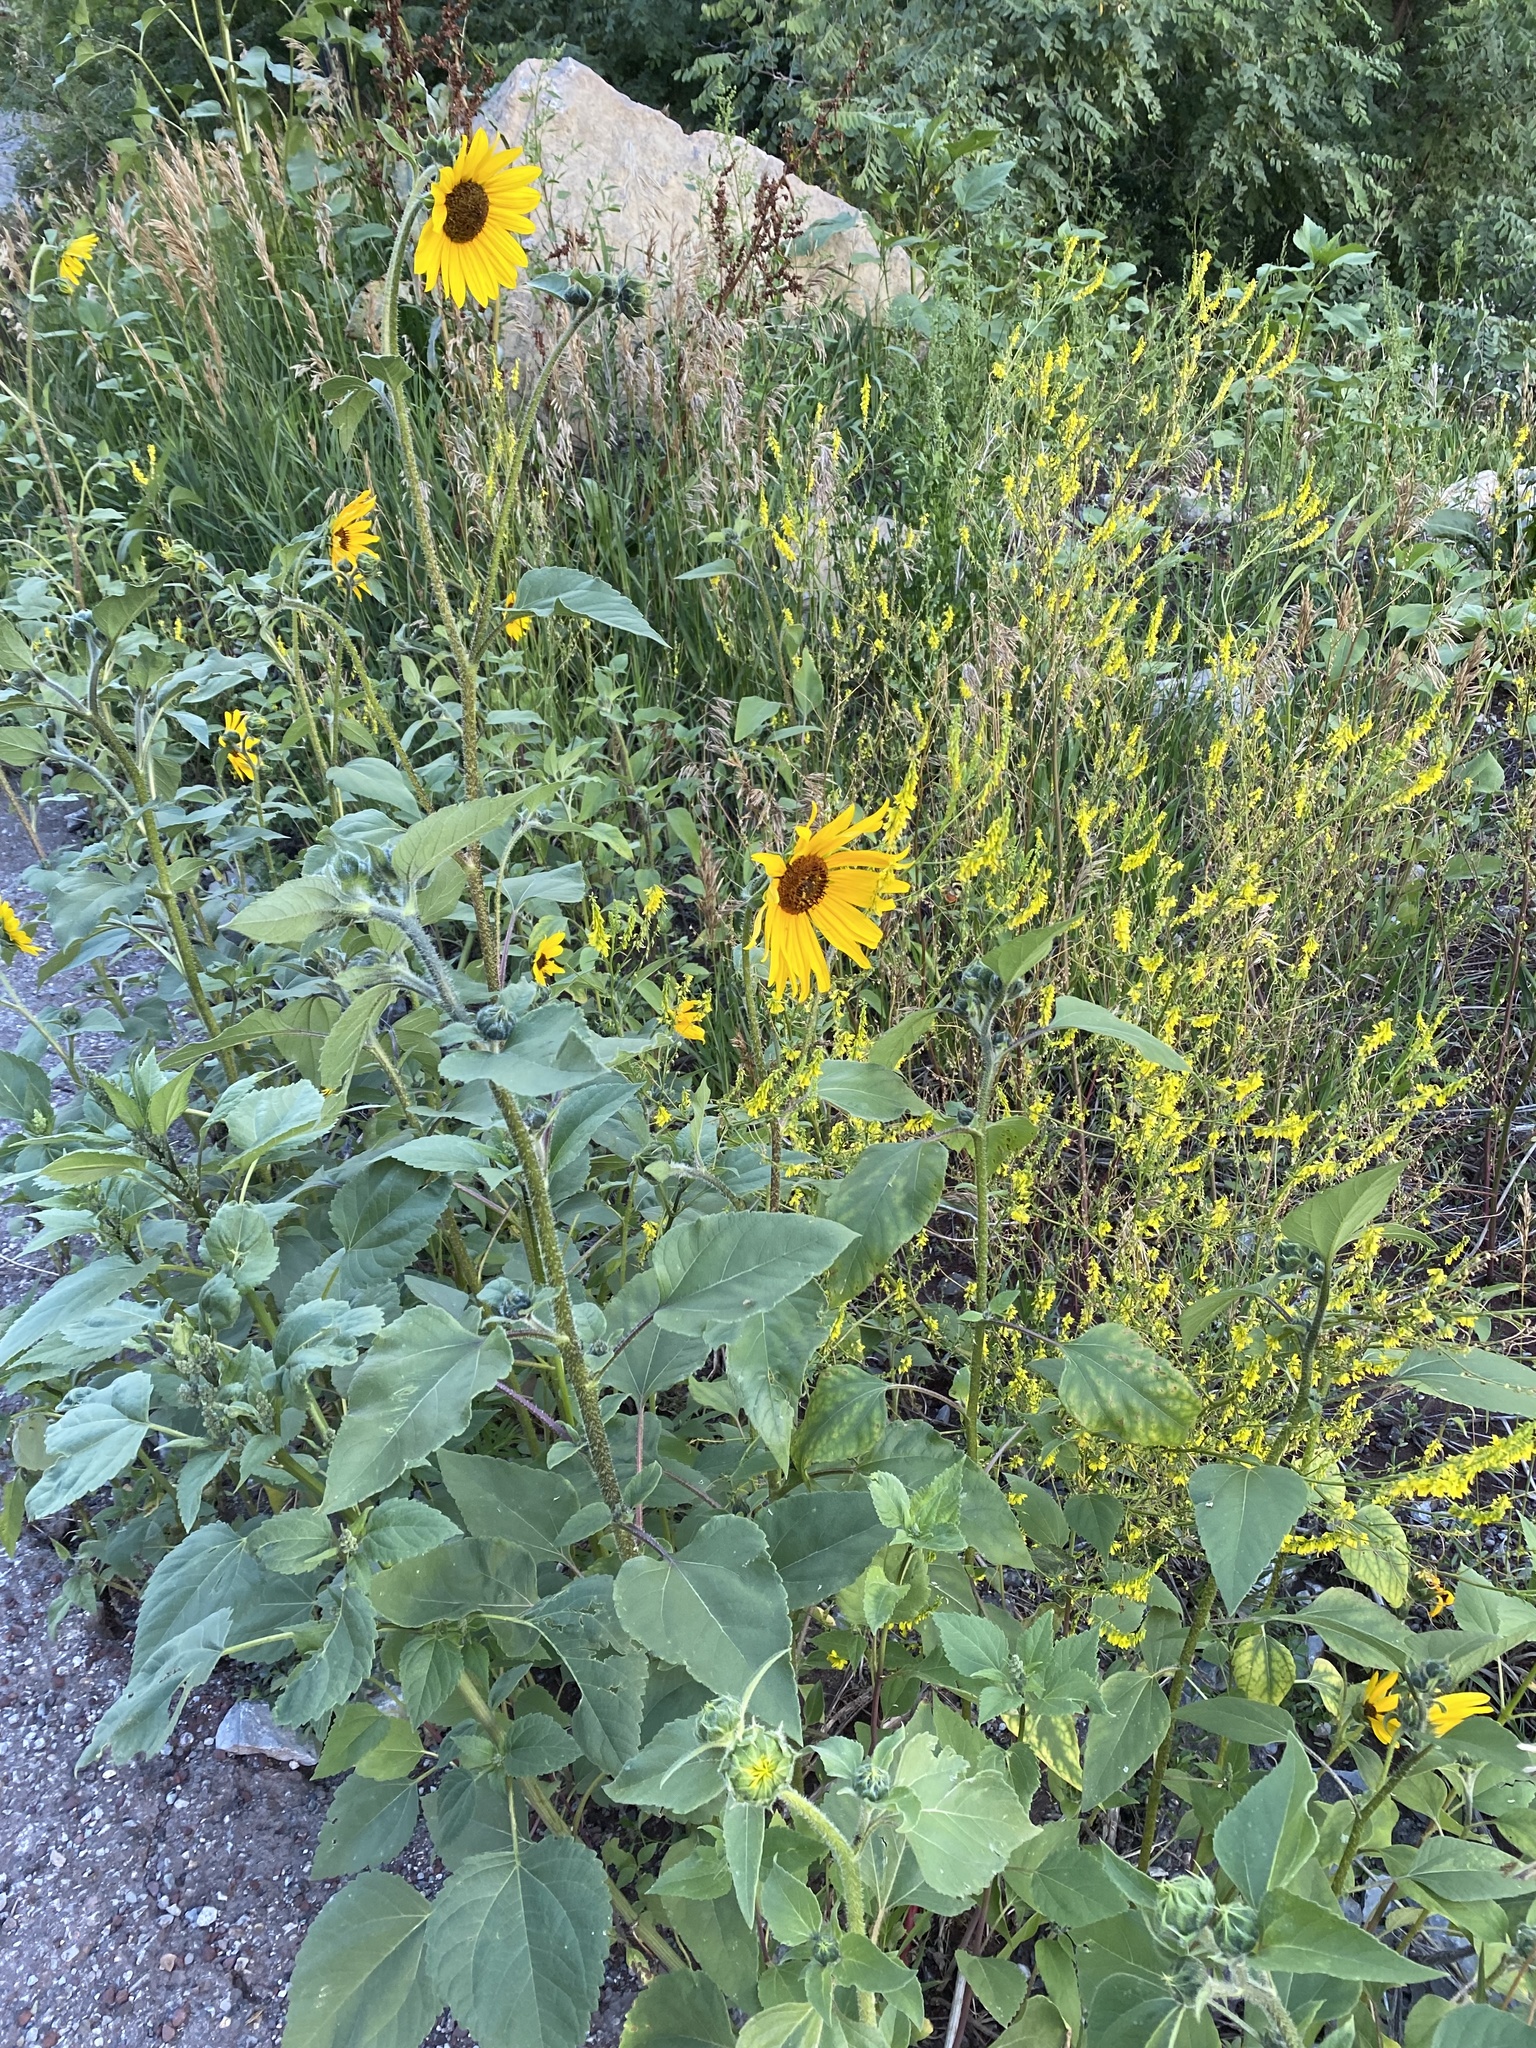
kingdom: Plantae
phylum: Tracheophyta
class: Magnoliopsida
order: Asterales
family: Asteraceae
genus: Helianthus
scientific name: Helianthus annuus
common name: Sunflower
